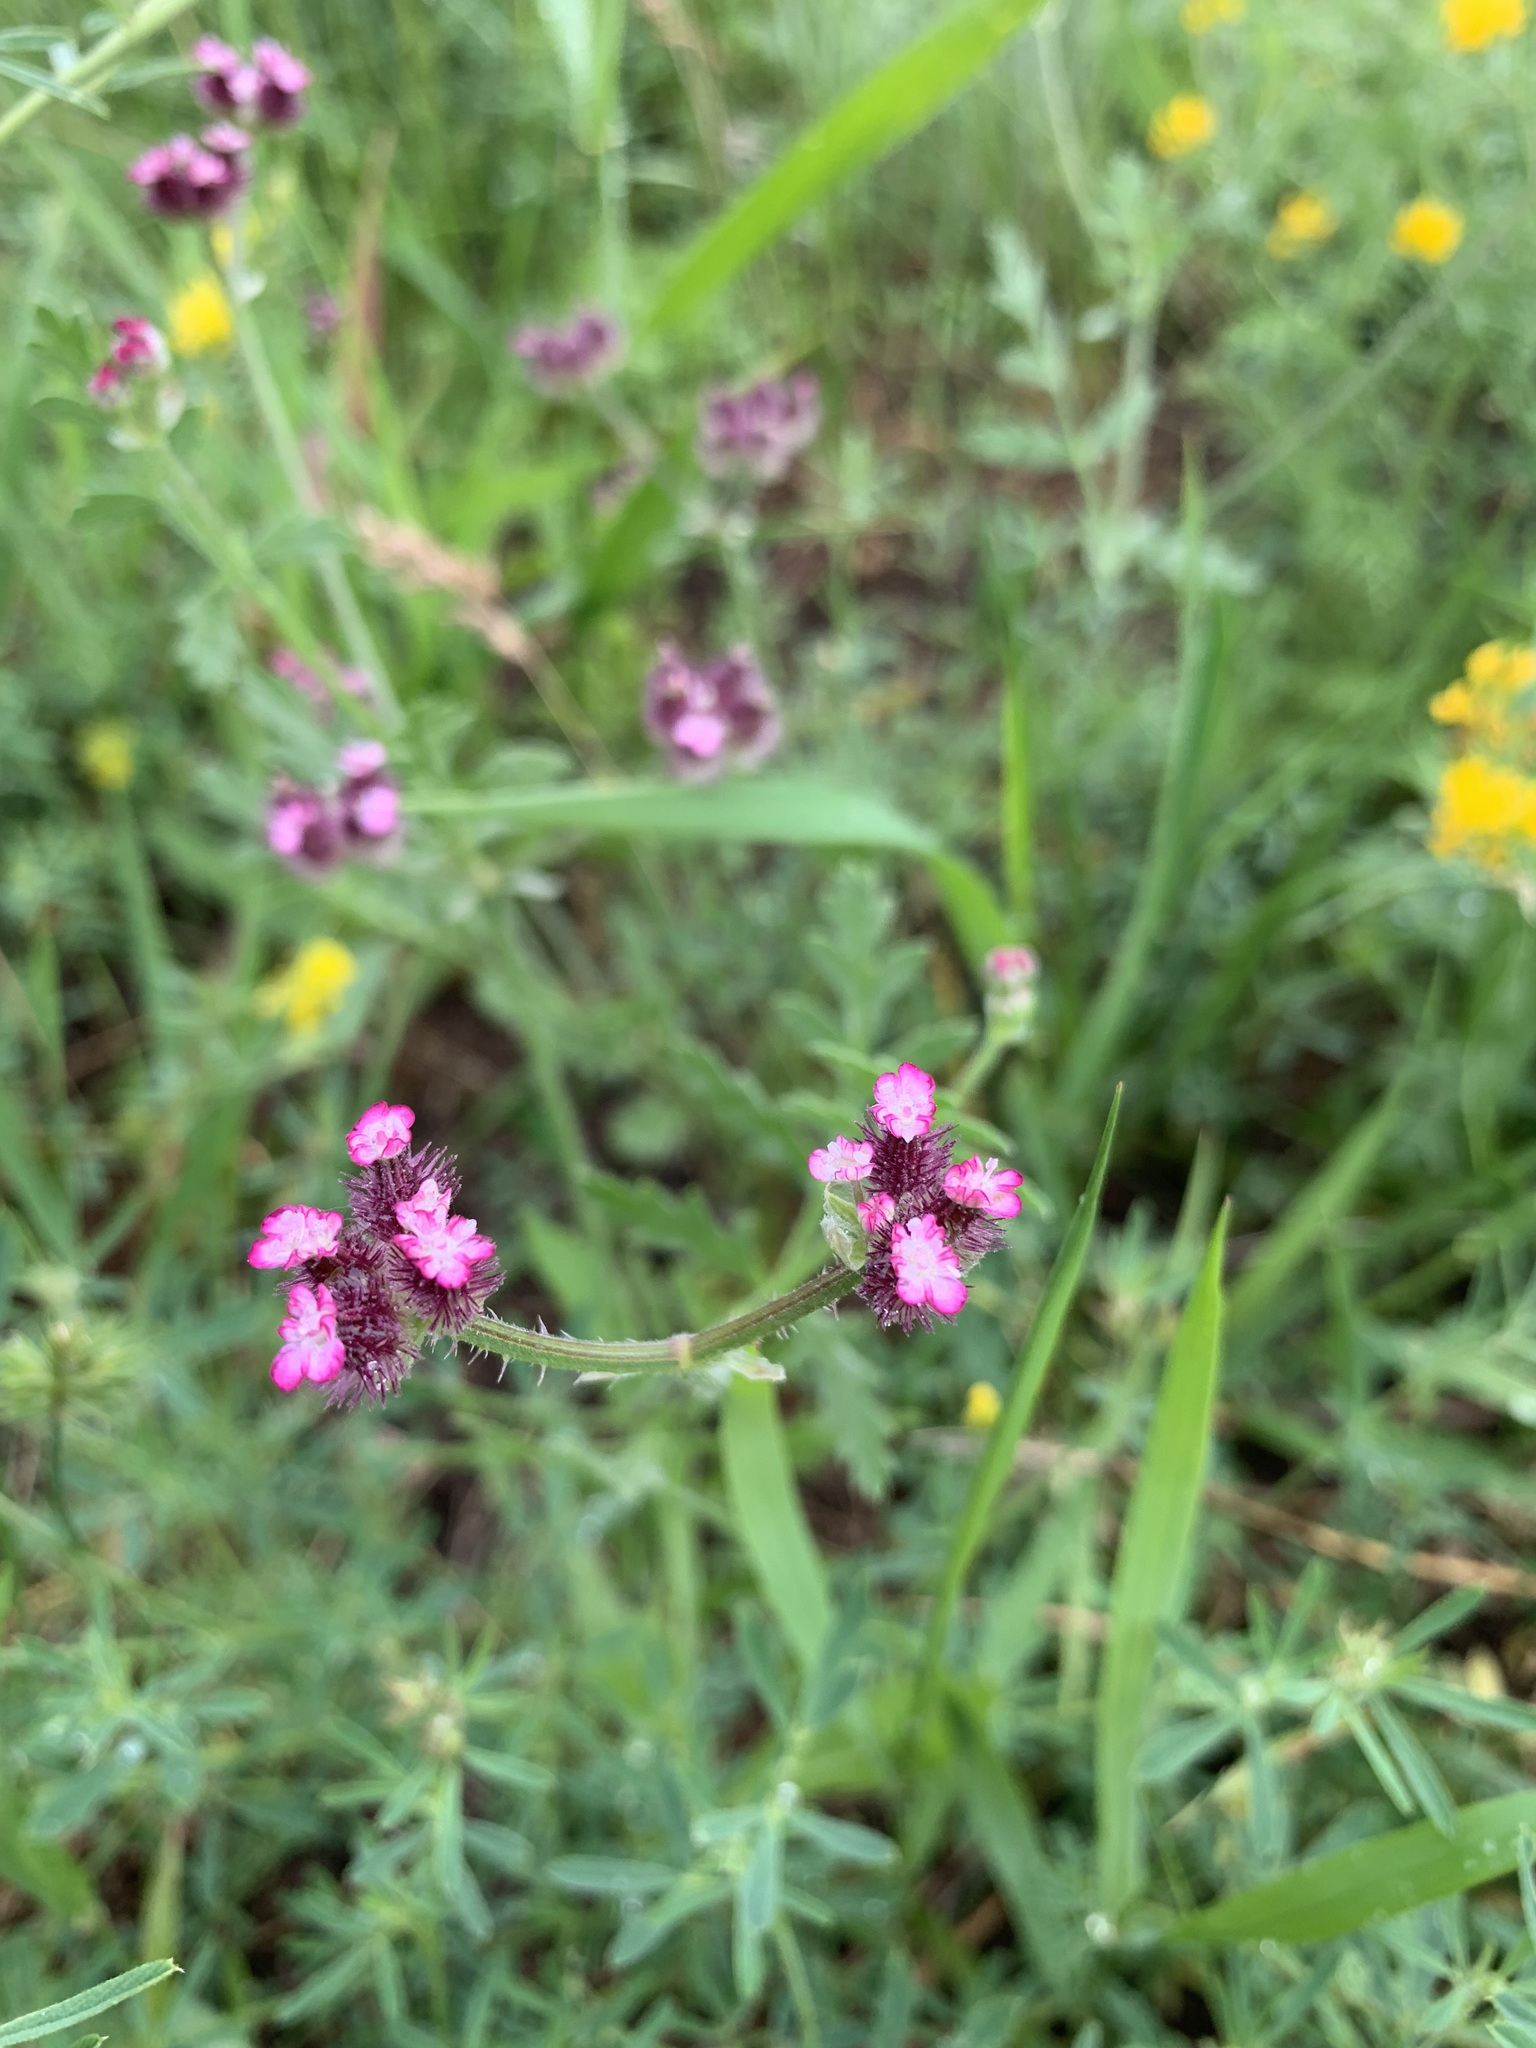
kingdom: Plantae
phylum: Tracheophyta
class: Magnoliopsida
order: Apiales
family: Apiaceae
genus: Turgenia
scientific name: Turgenia latifolia
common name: Greater bur-parsley
